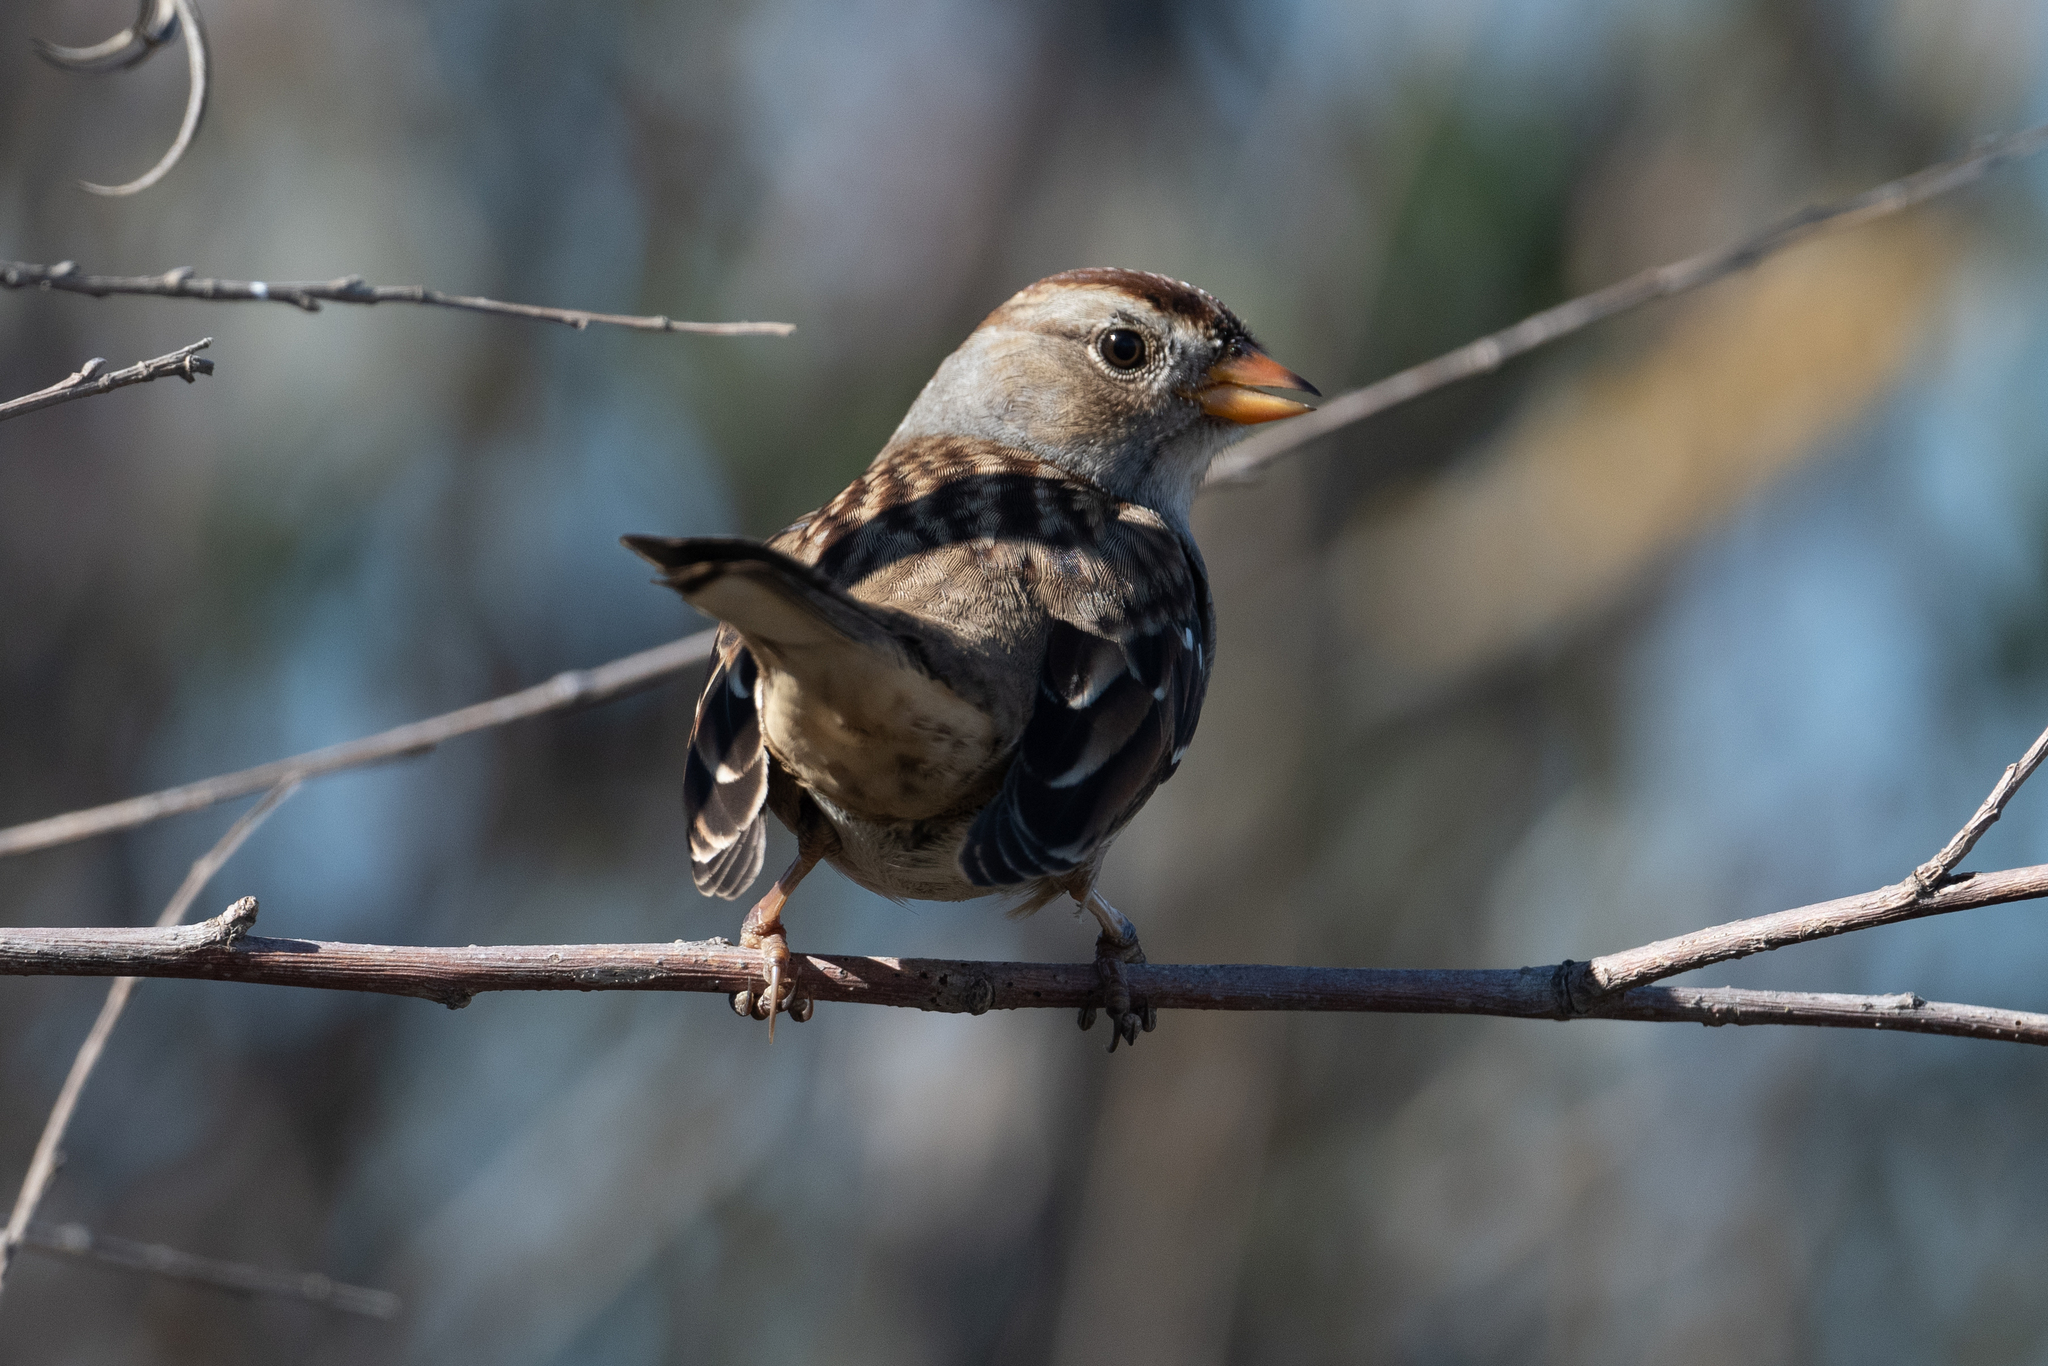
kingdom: Animalia
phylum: Chordata
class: Aves
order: Passeriformes
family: Passerellidae
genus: Zonotrichia
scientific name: Zonotrichia leucophrys
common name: White-crowned sparrow
